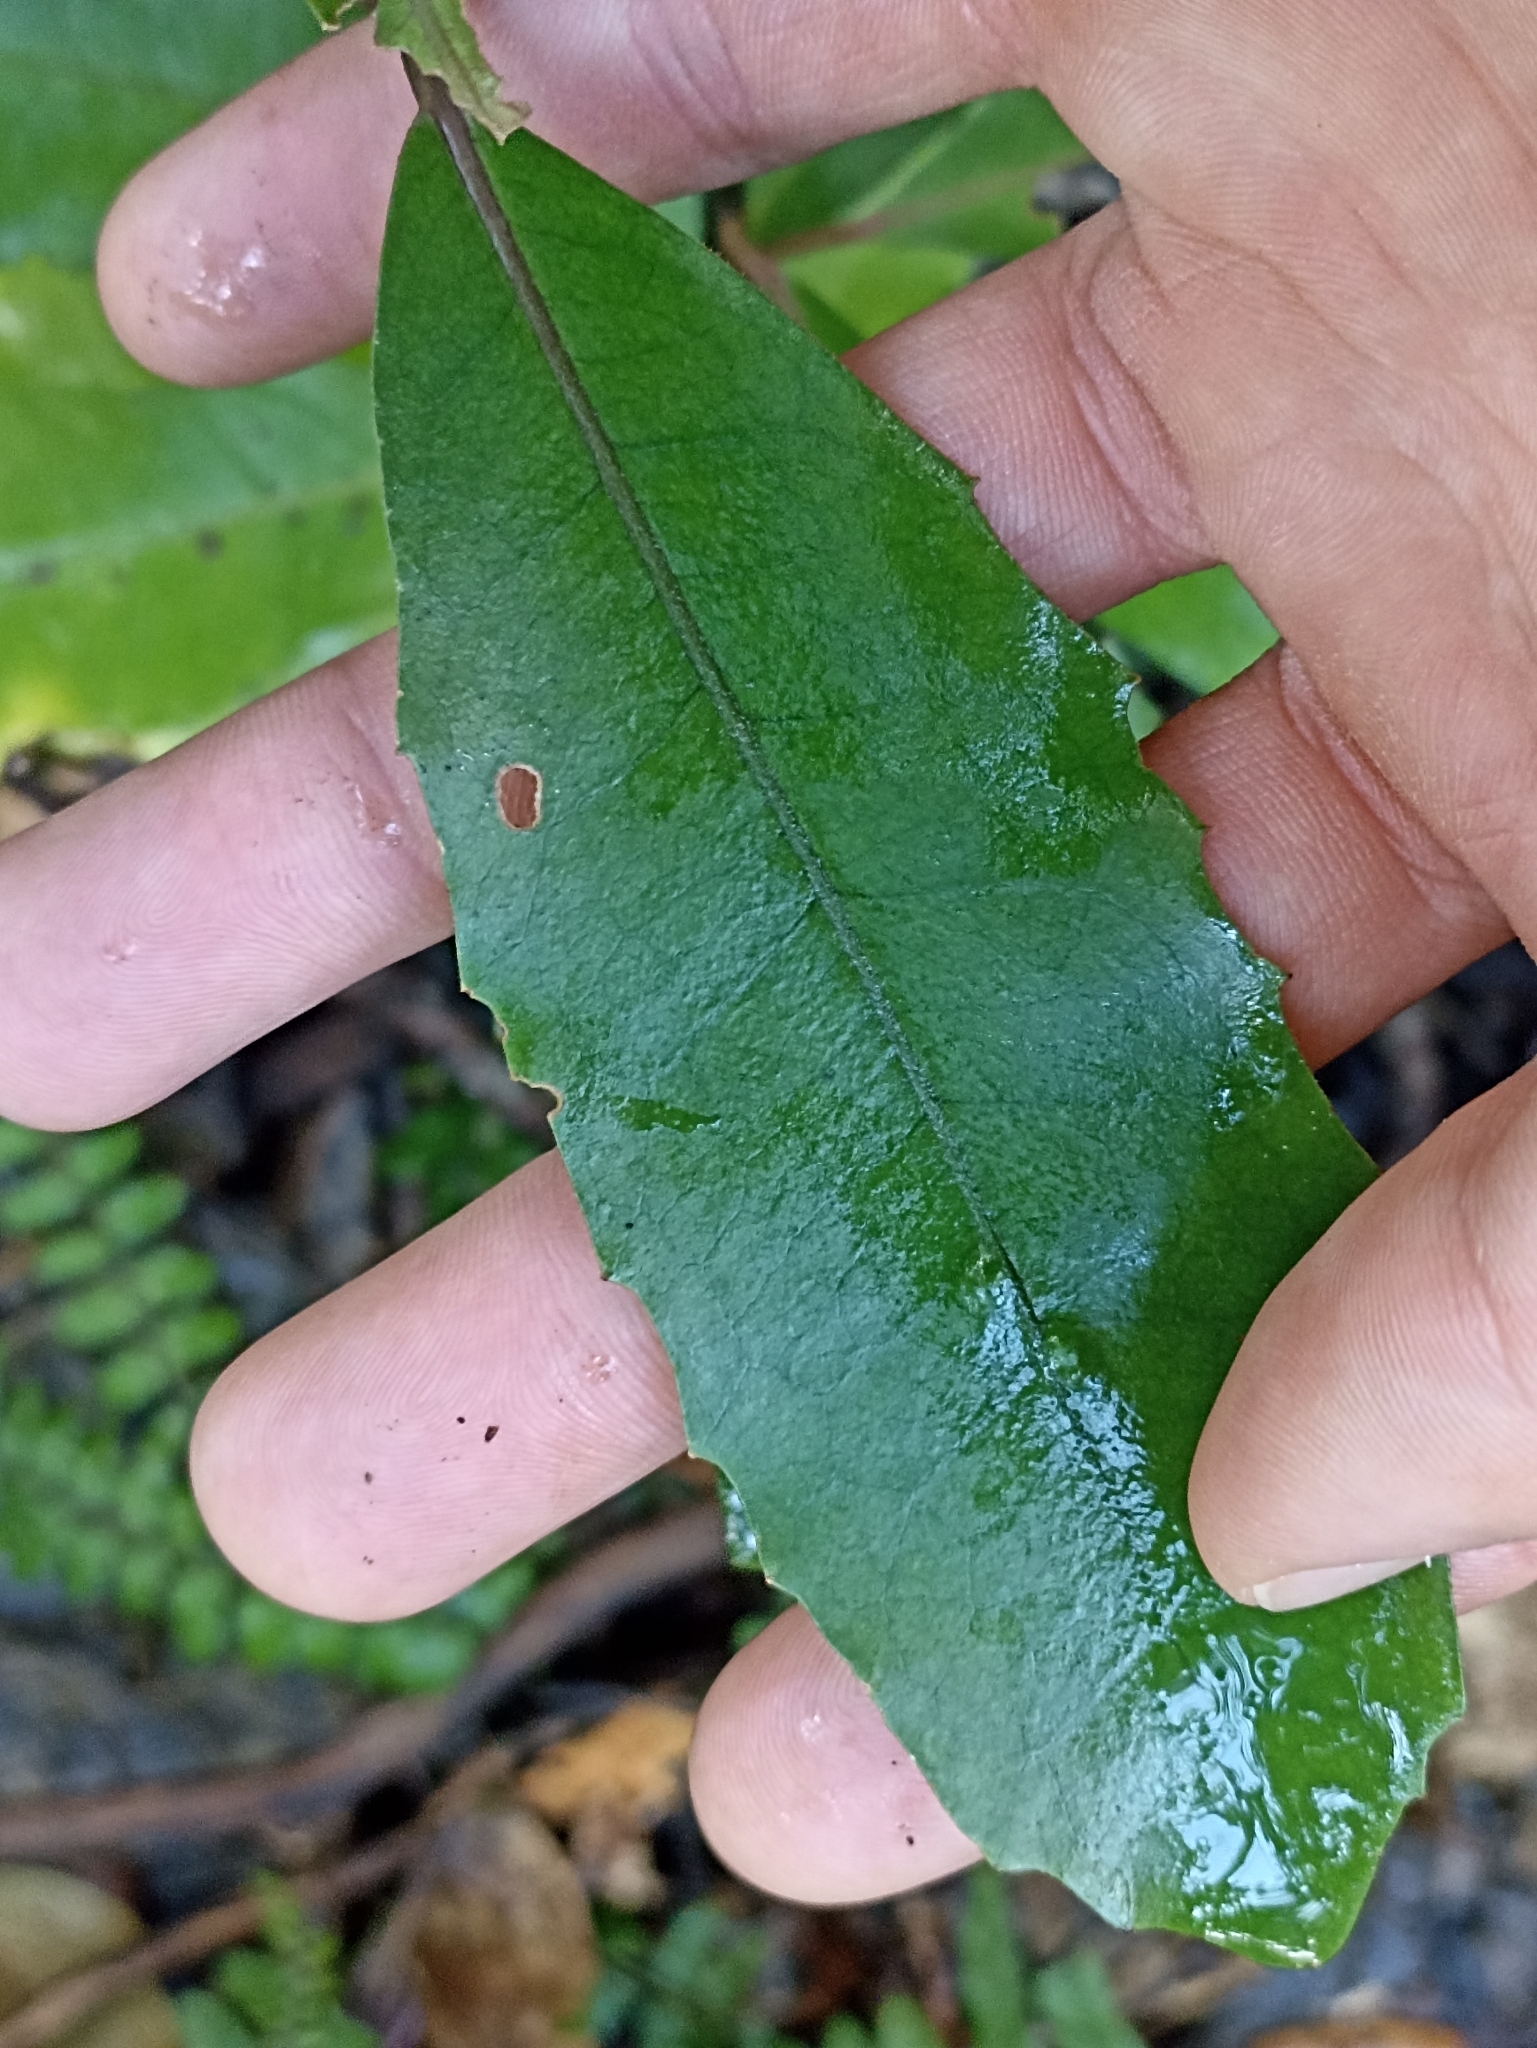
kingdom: Plantae
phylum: Tracheophyta
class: Magnoliopsida
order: Laurales
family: Monimiaceae
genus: Hedycarya
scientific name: Hedycarya arborea
